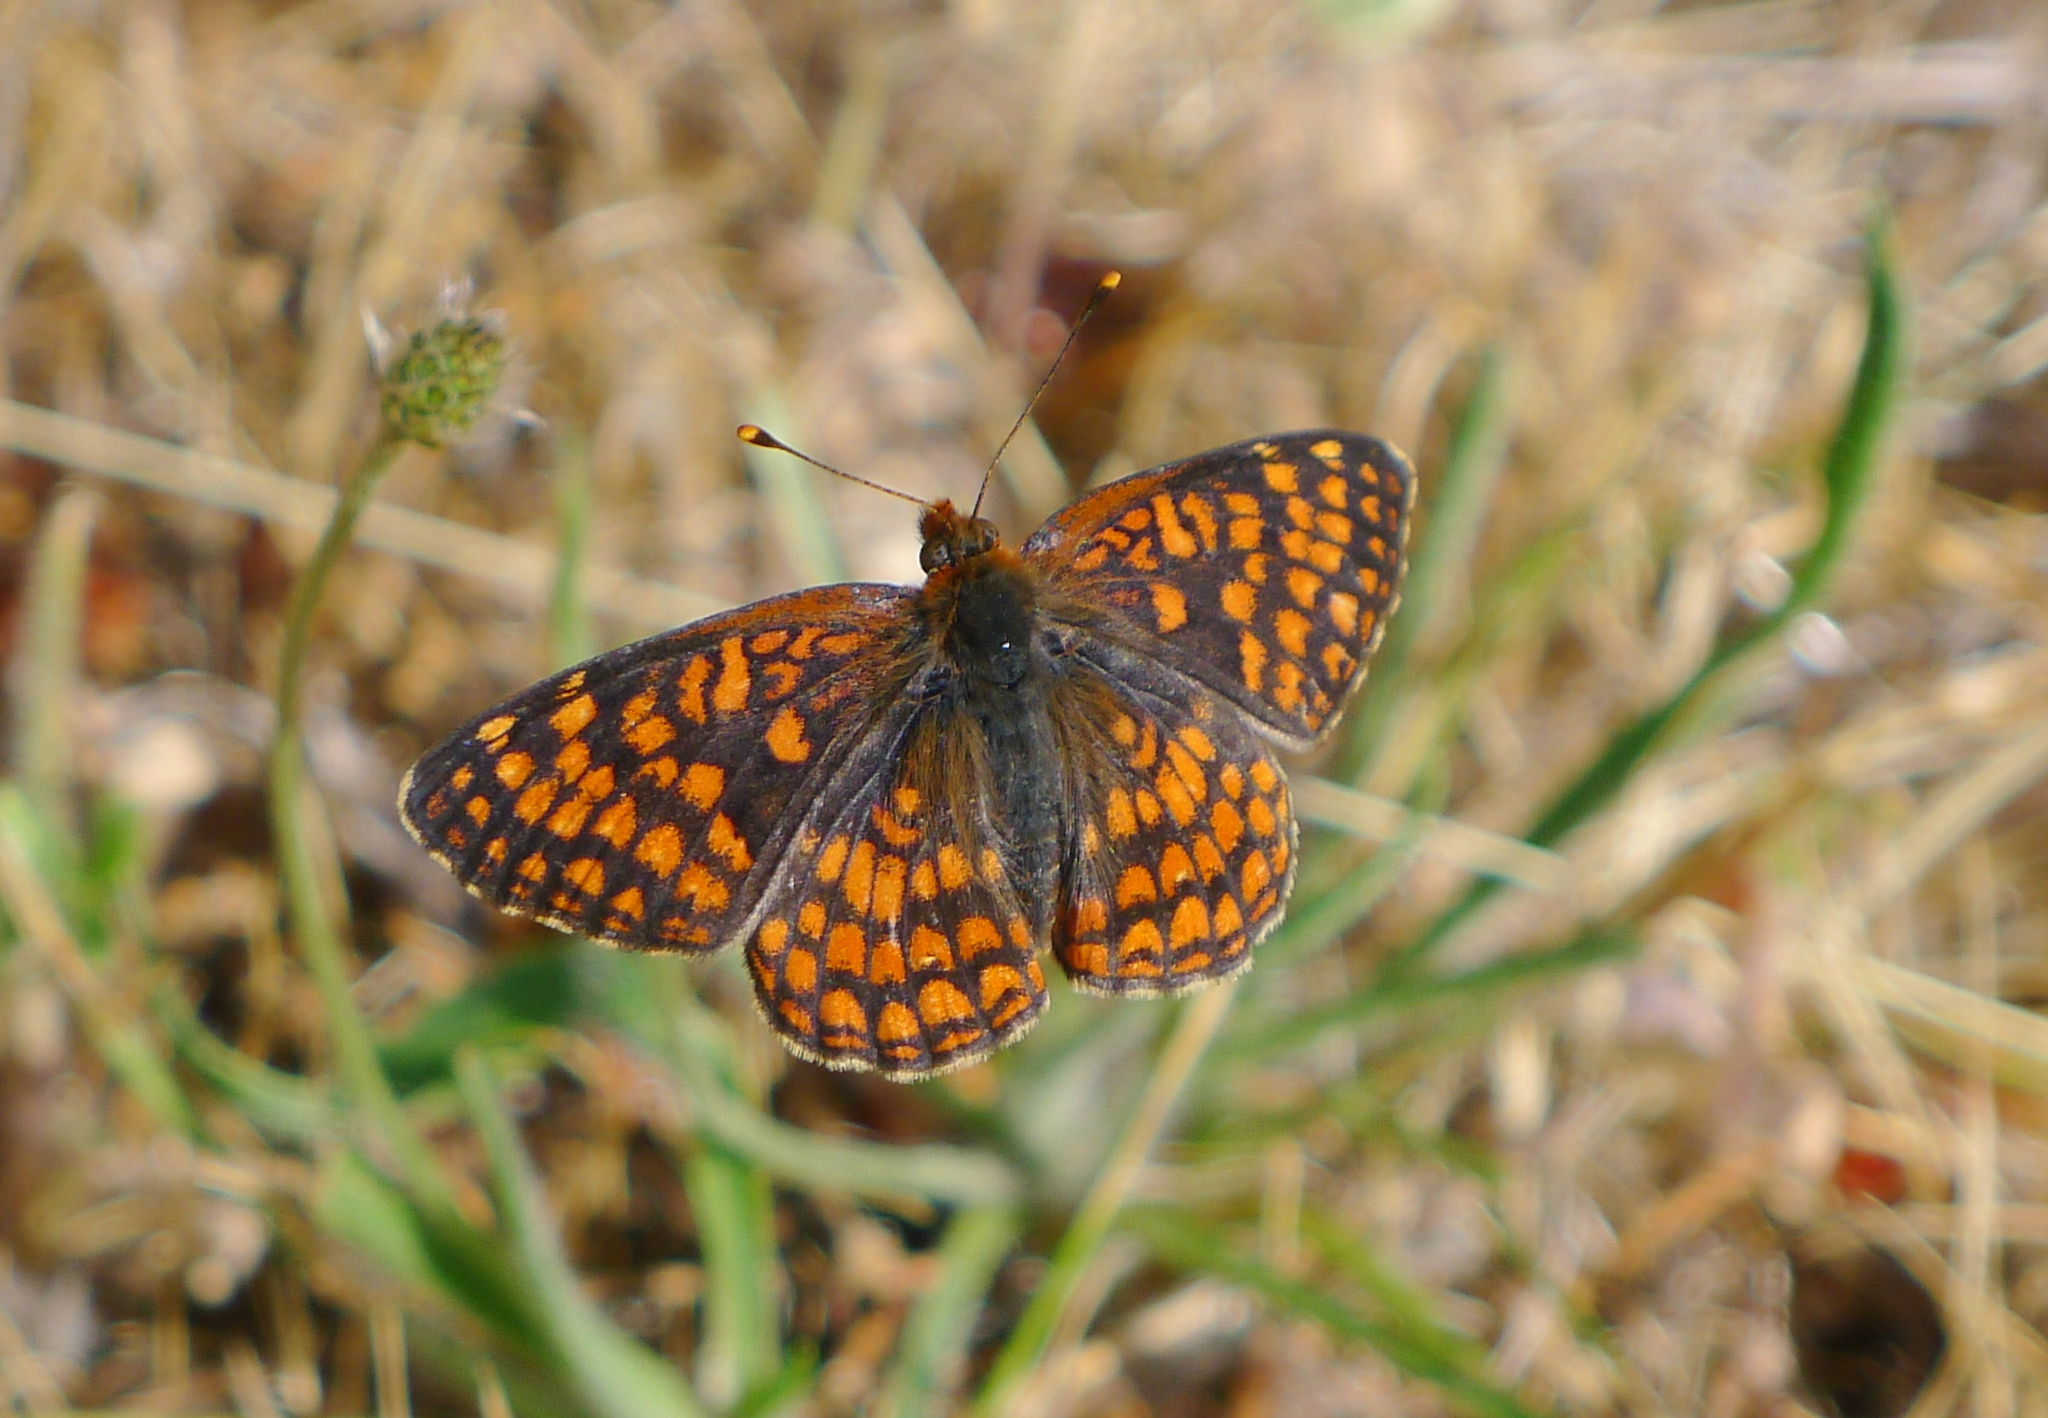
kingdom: Animalia
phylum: Arthropoda
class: Insecta
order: Lepidoptera
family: Nymphalidae
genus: Chlosyne
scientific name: Chlosyne palla
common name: Northern checkerspot
